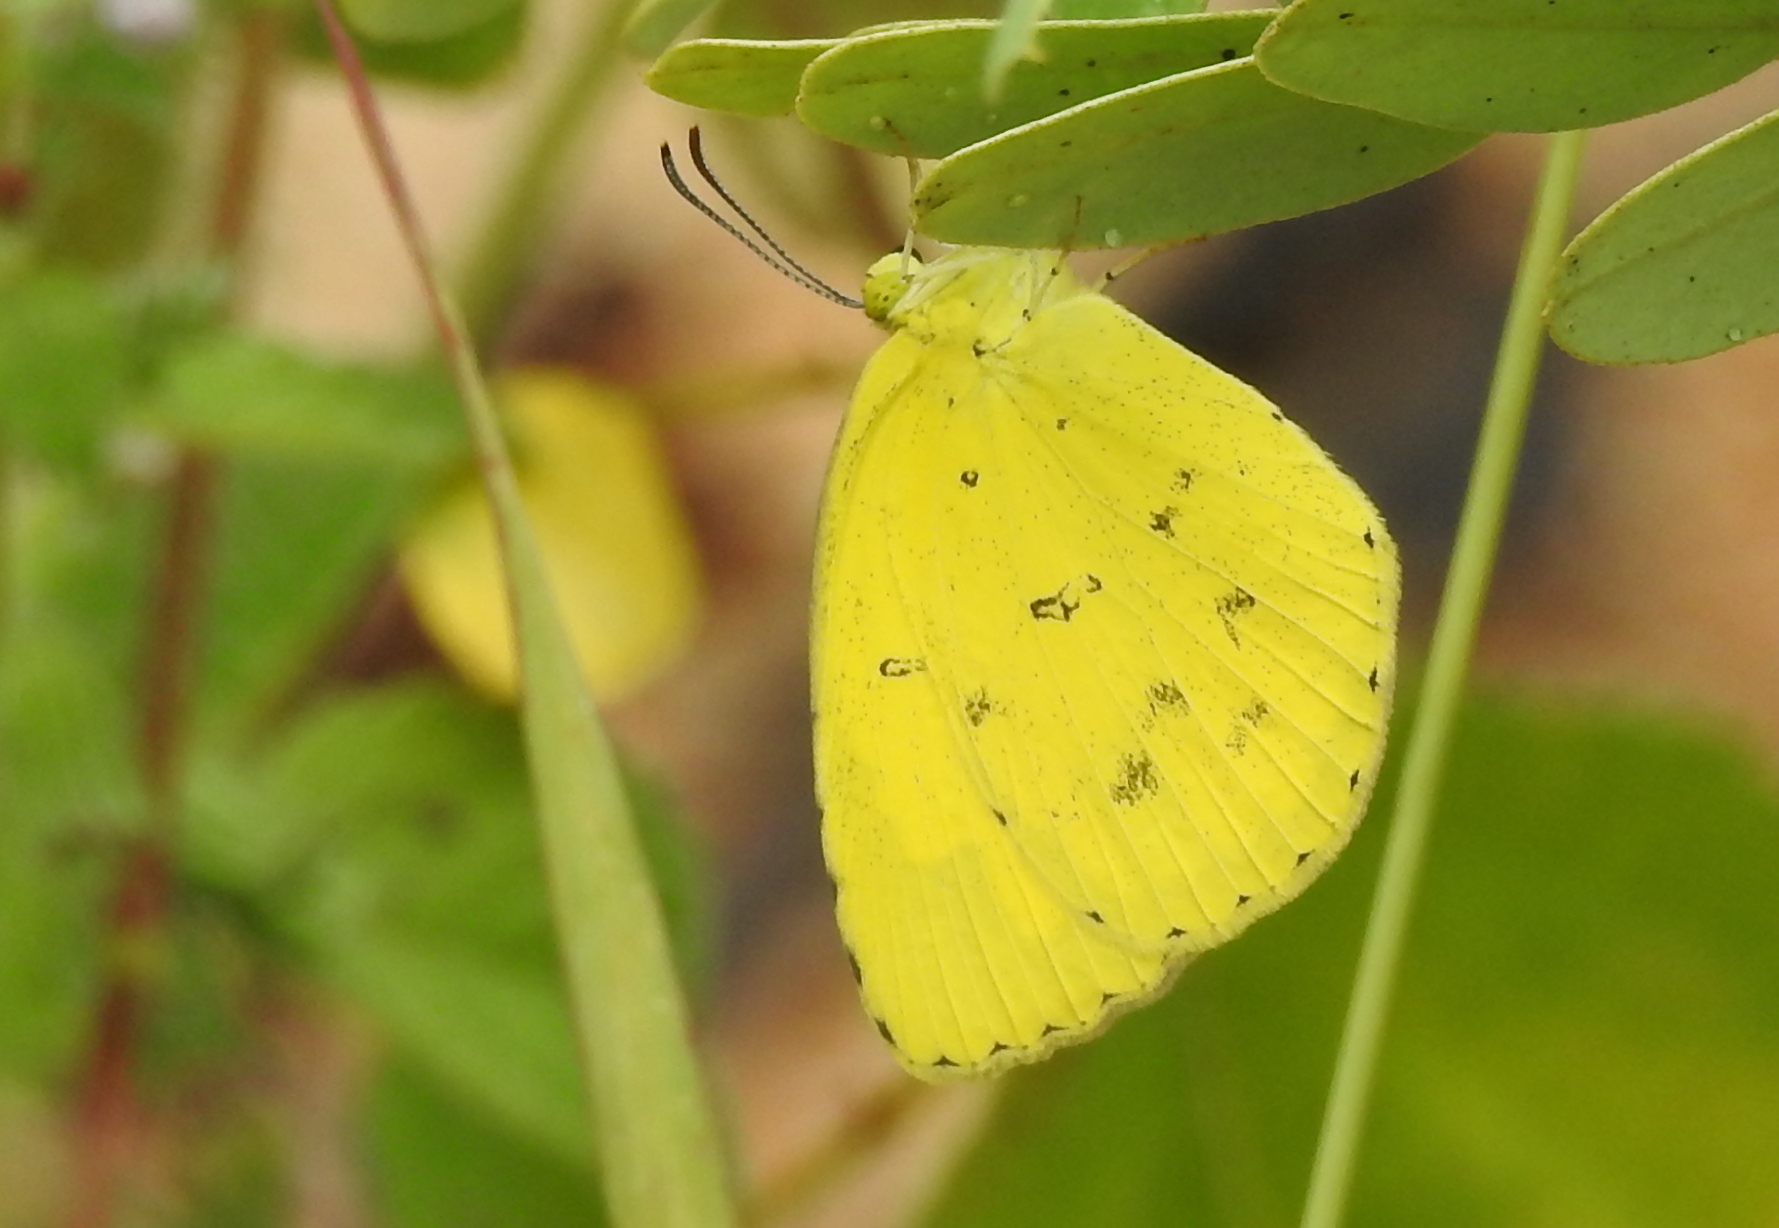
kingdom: Animalia
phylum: Arthropoda
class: Insecta
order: Lepidoptera
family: Pieridae
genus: Eurema
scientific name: Eurema hecabe
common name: Pale grass yellow
